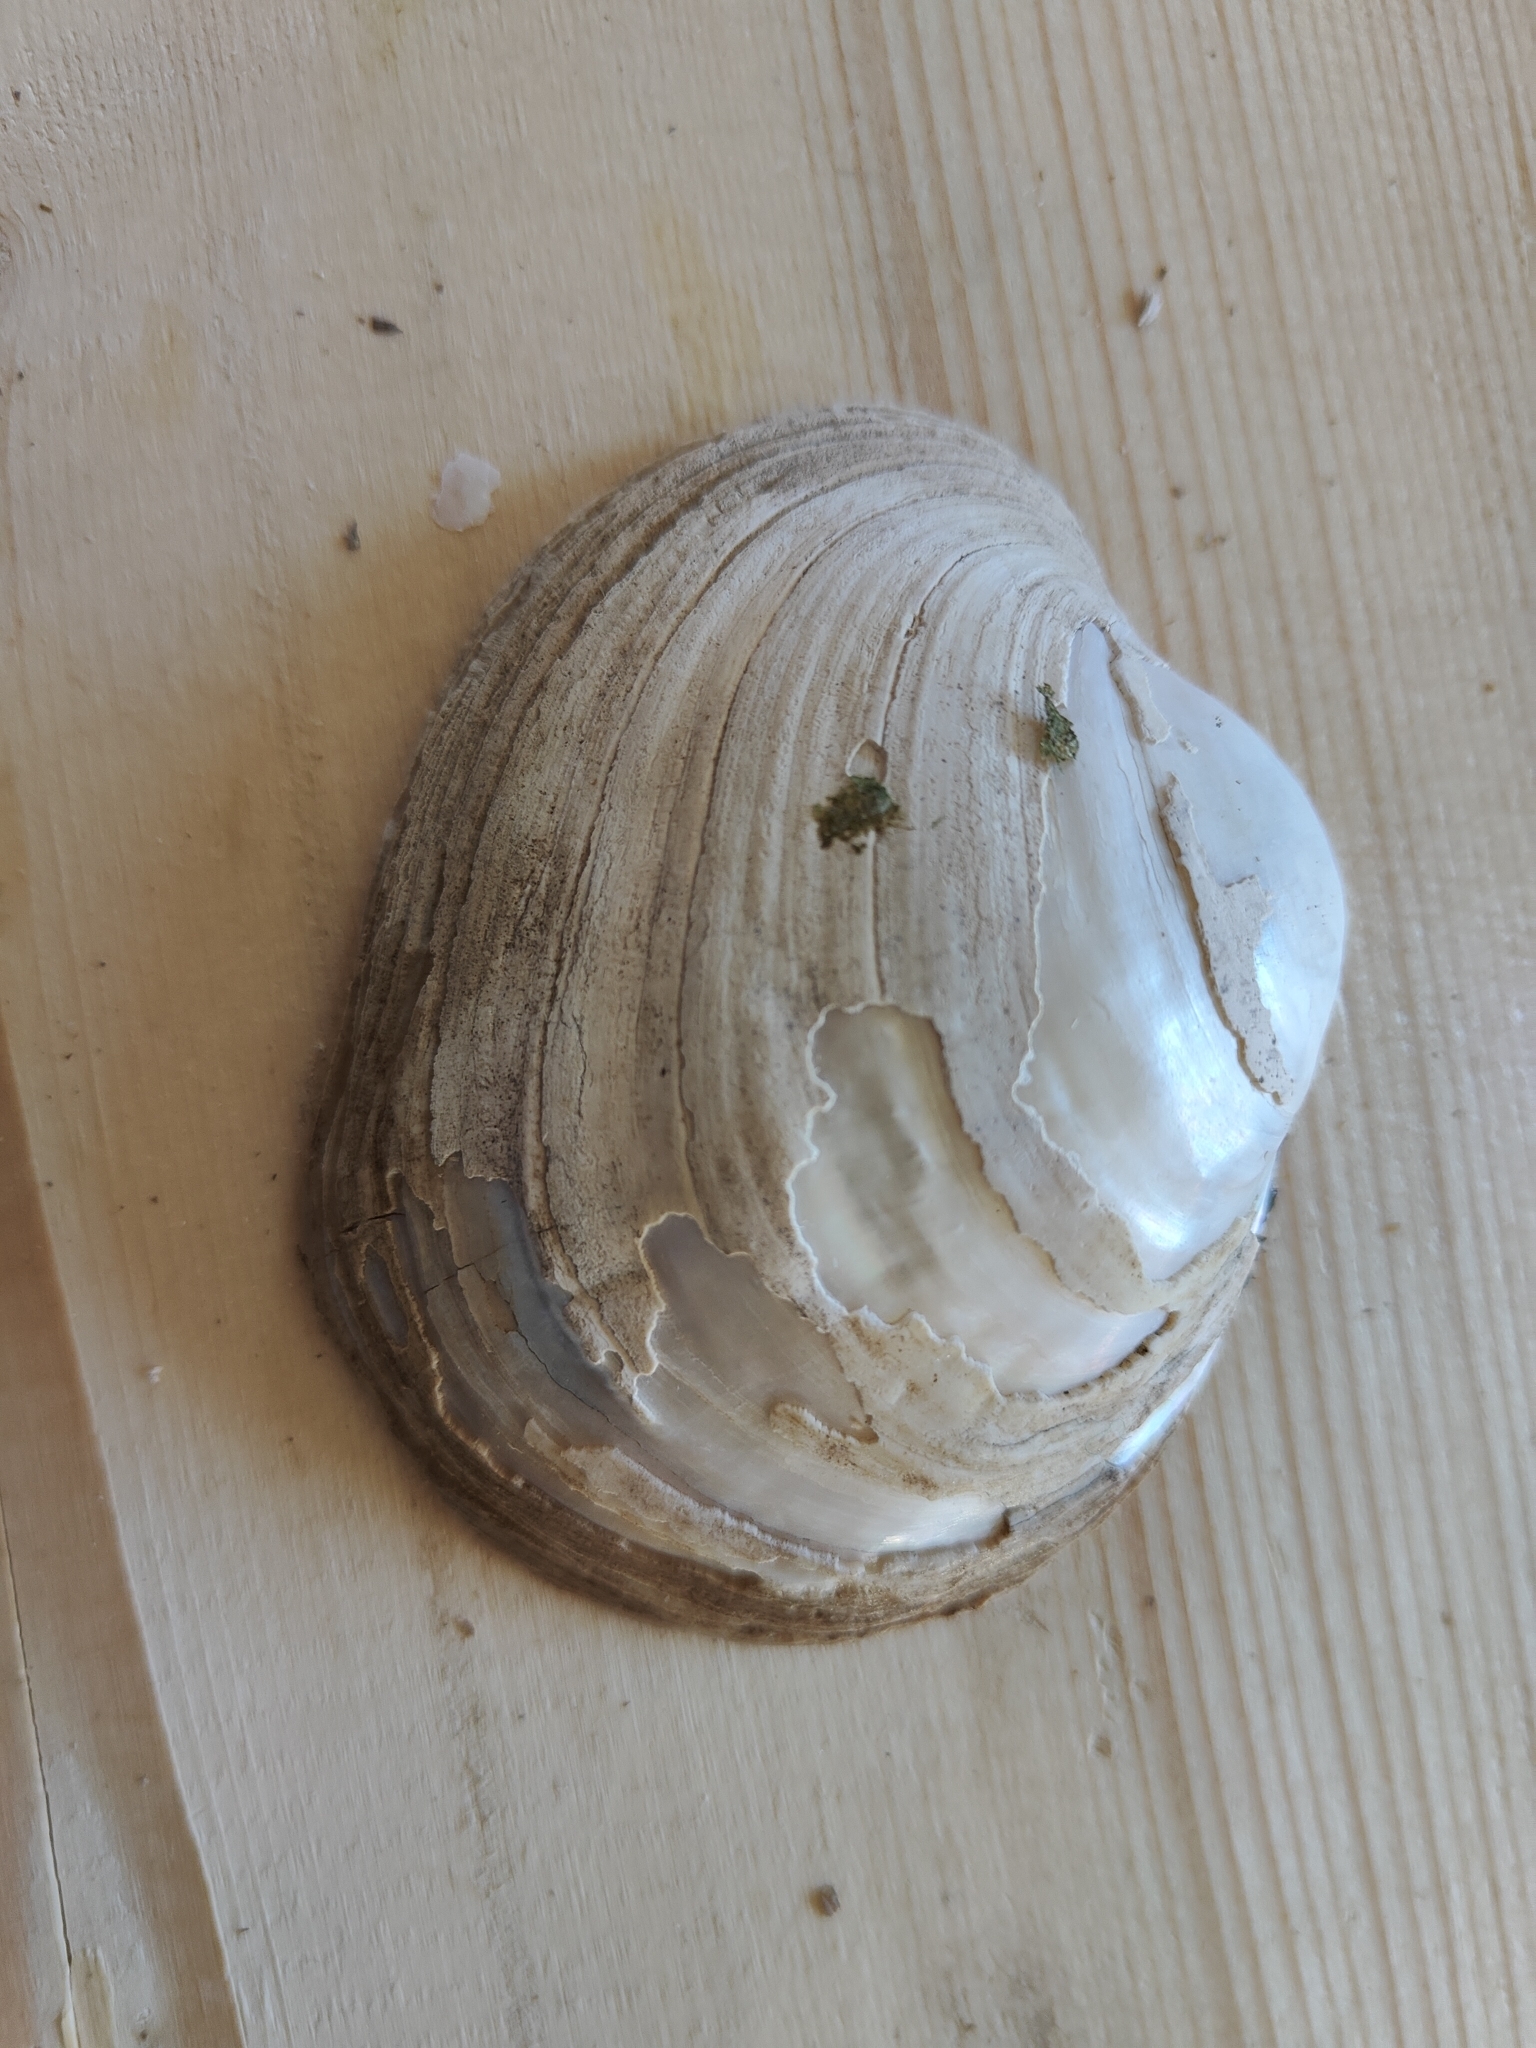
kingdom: Animalia
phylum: Mollusca
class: Bivalvia
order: Unionida
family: Unionidae
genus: Lampsilis
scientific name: Lampsilis cardium
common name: Plain pocketbook
